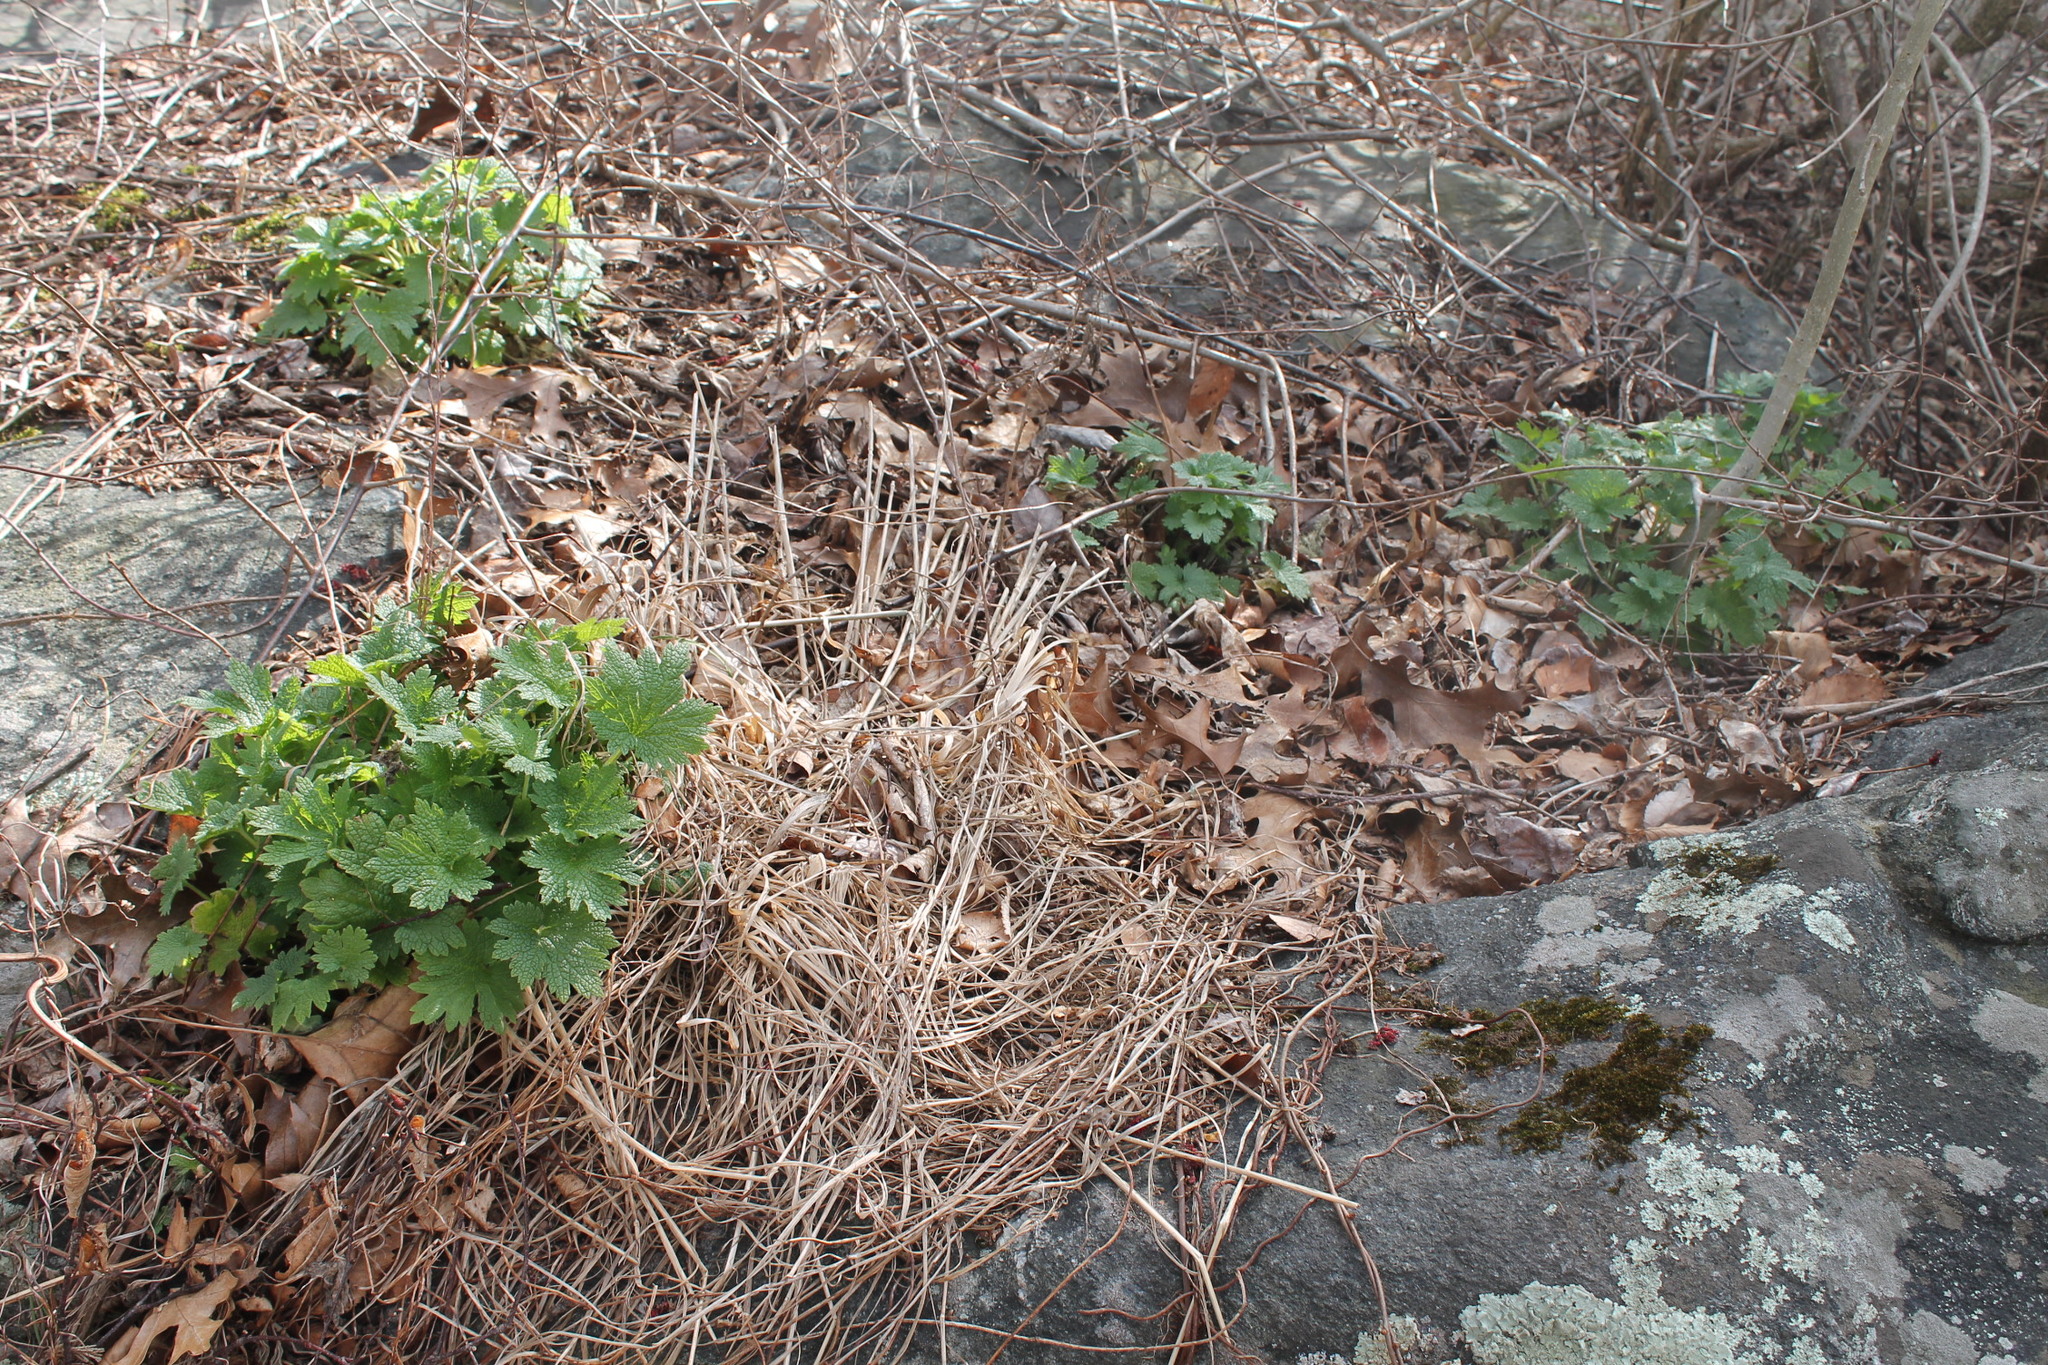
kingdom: Plantae
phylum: Tracheophyta
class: Magnoliopsida
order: Lamiales
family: Lamiaceae
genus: Leonurus
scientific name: Leonurus cardiaca
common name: Motherwort
